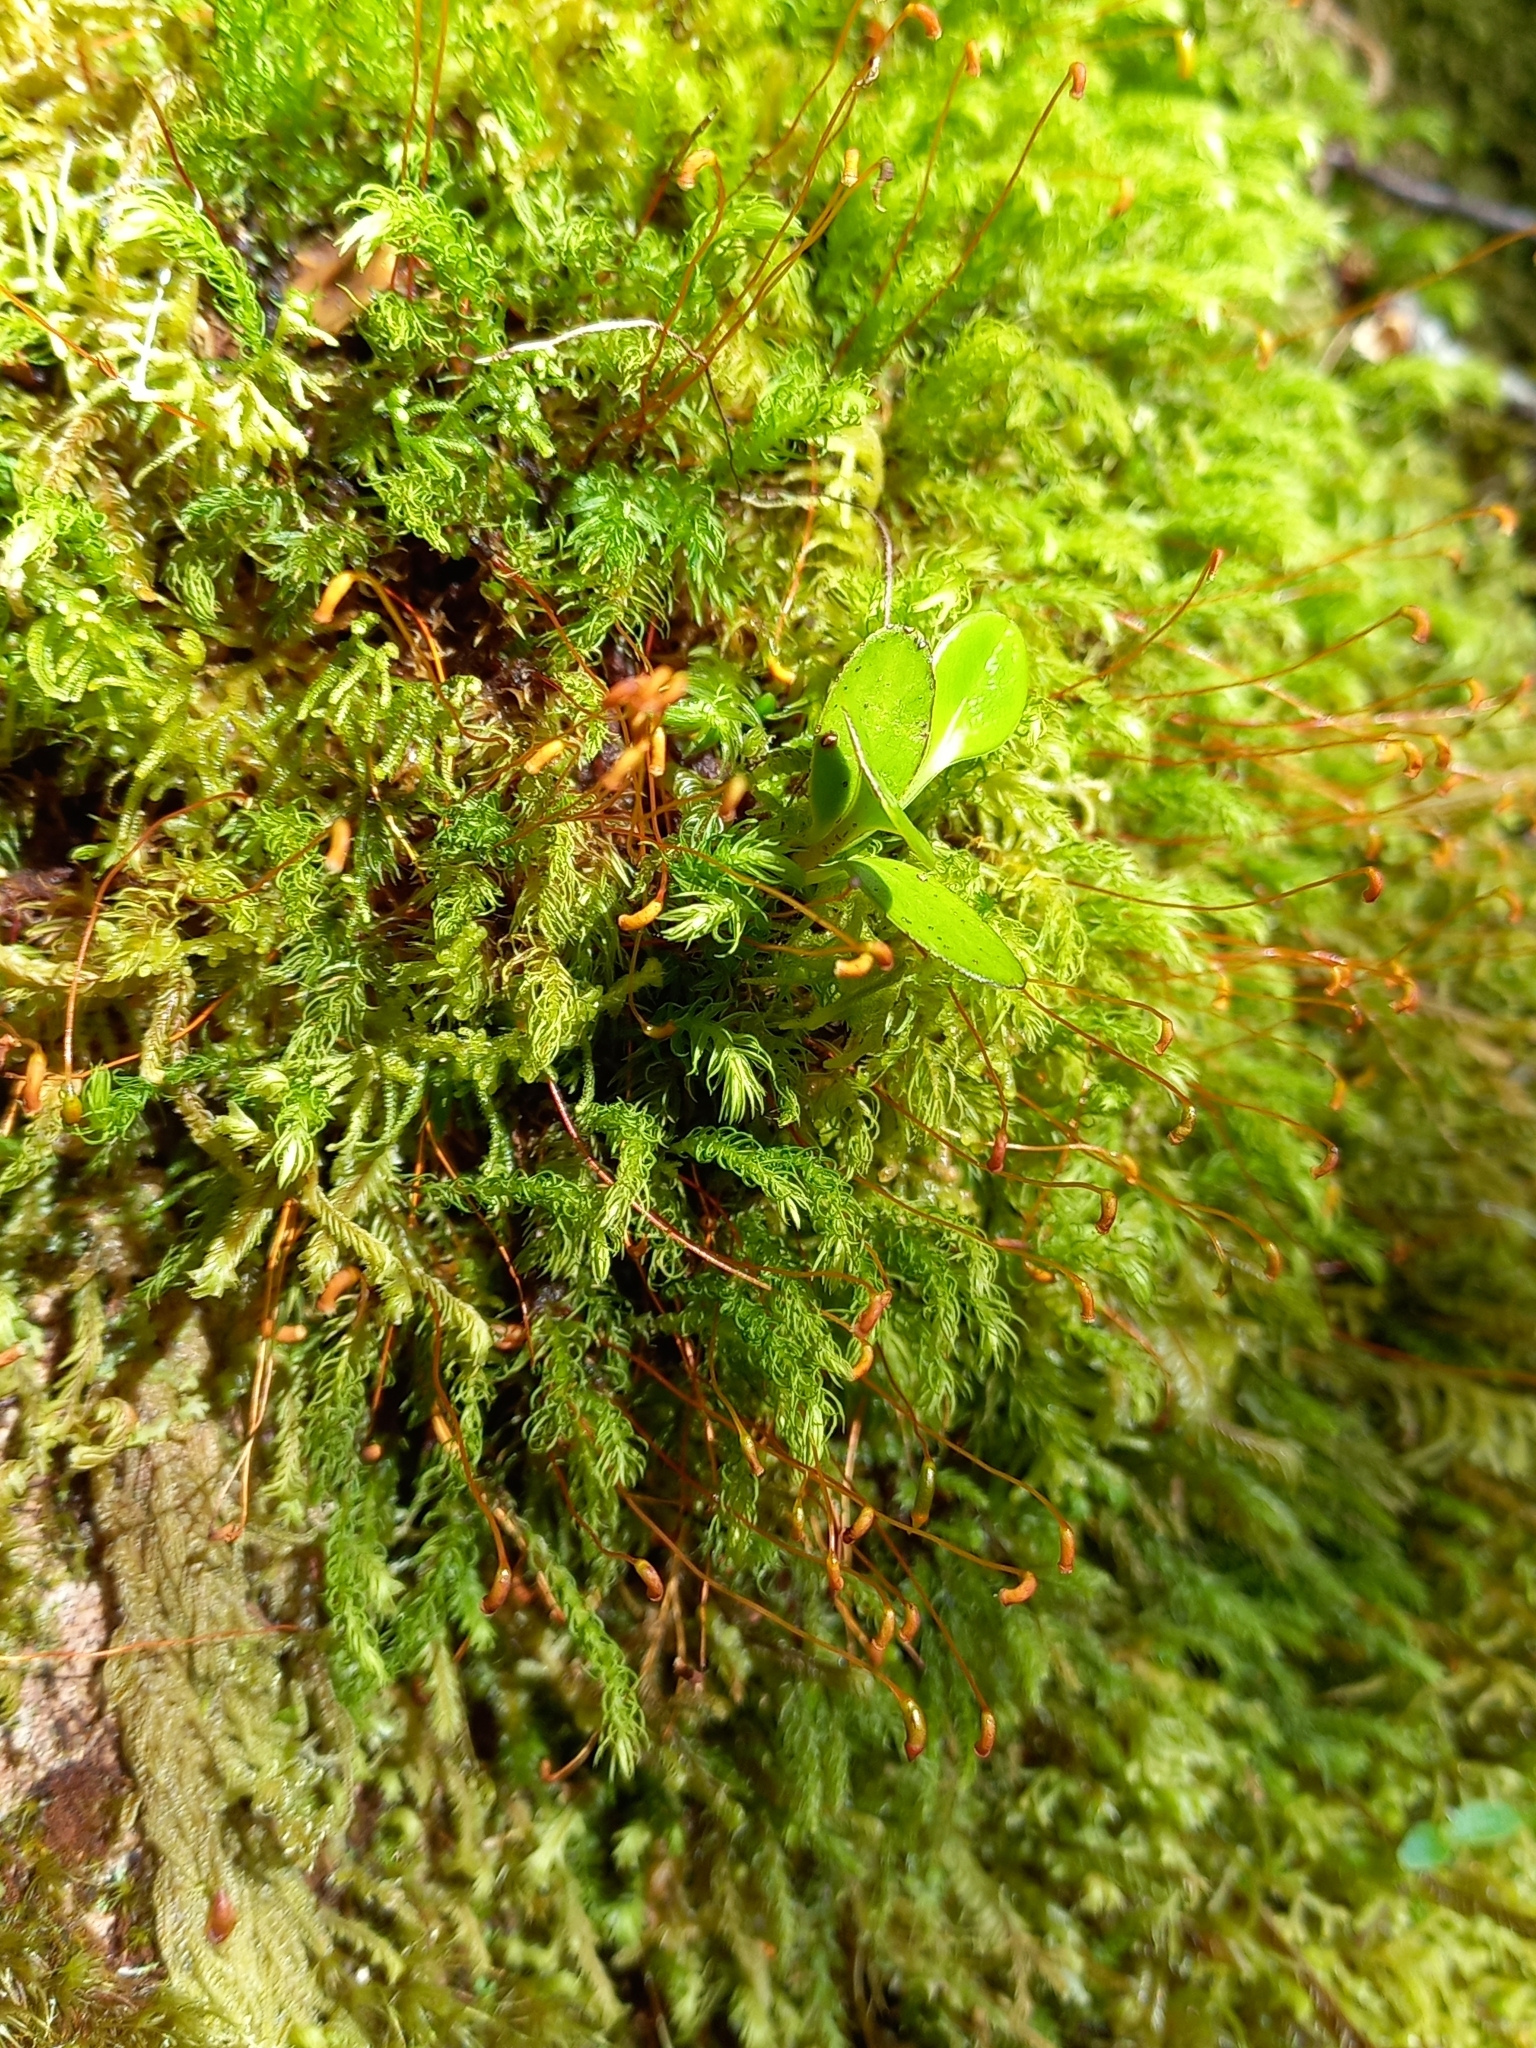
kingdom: Plantae
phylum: Bryophyta
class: Bryopsida
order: Aulacomniales
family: Aulacomniaceae
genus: Hymenodontopsis
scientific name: Hymenodontopsis mnioides
